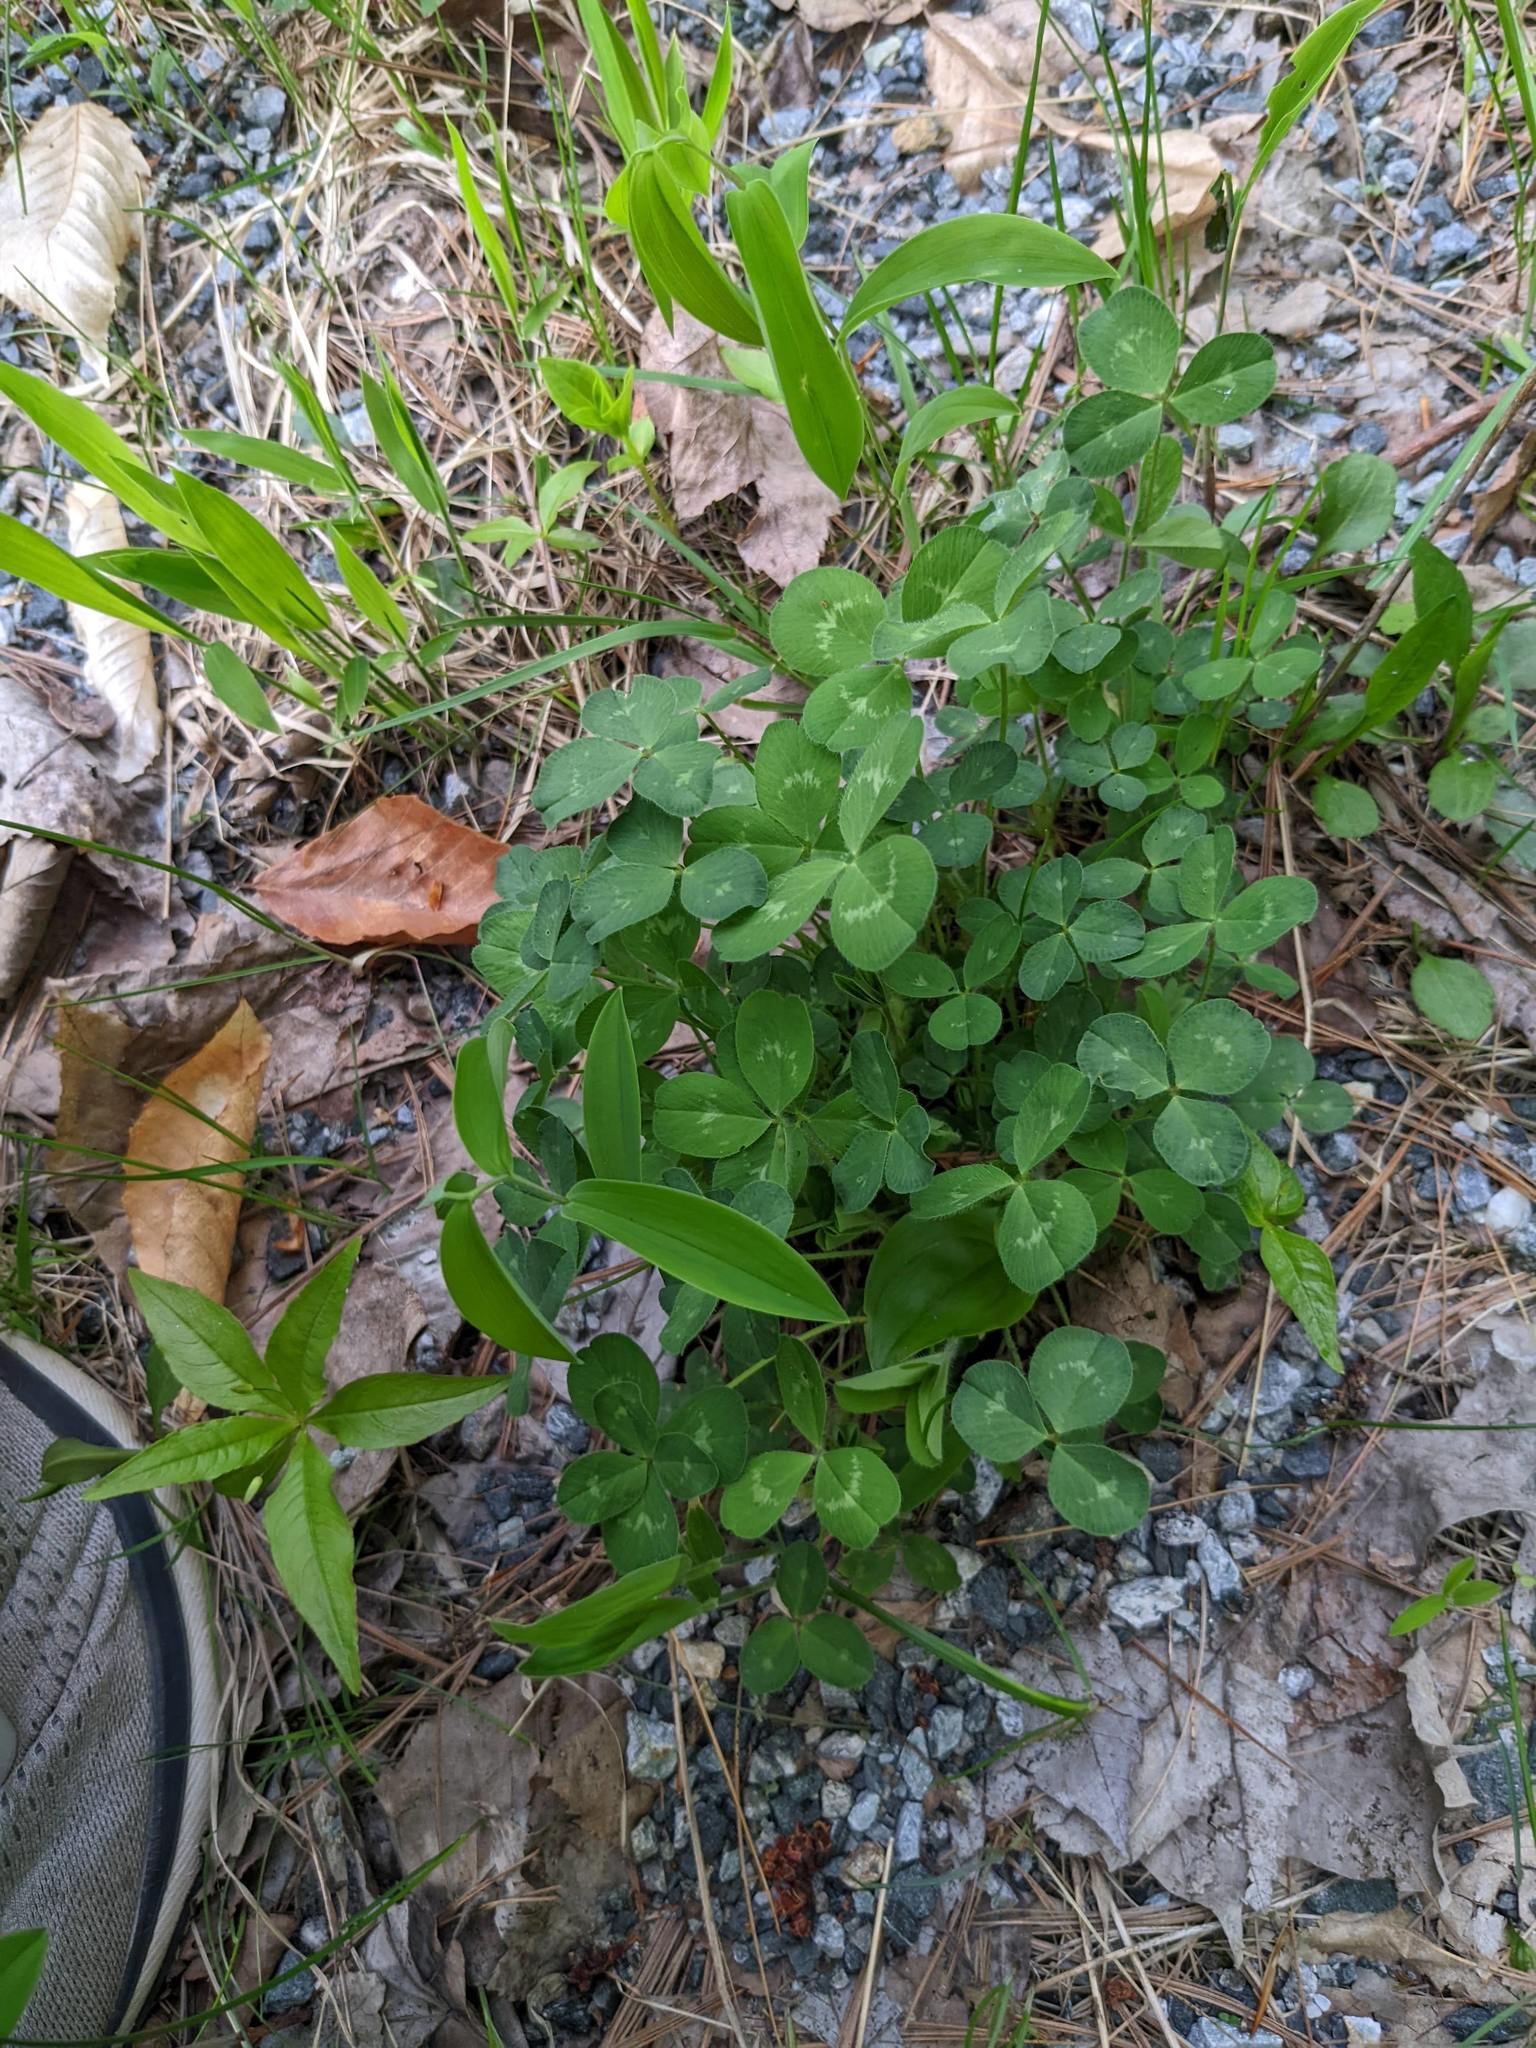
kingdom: Plantae
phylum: Tracheophyta
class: Magnoliopsida
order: Fabales
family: Fabaceae
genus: Trifolium
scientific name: Trifolium pratense
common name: Red clover
